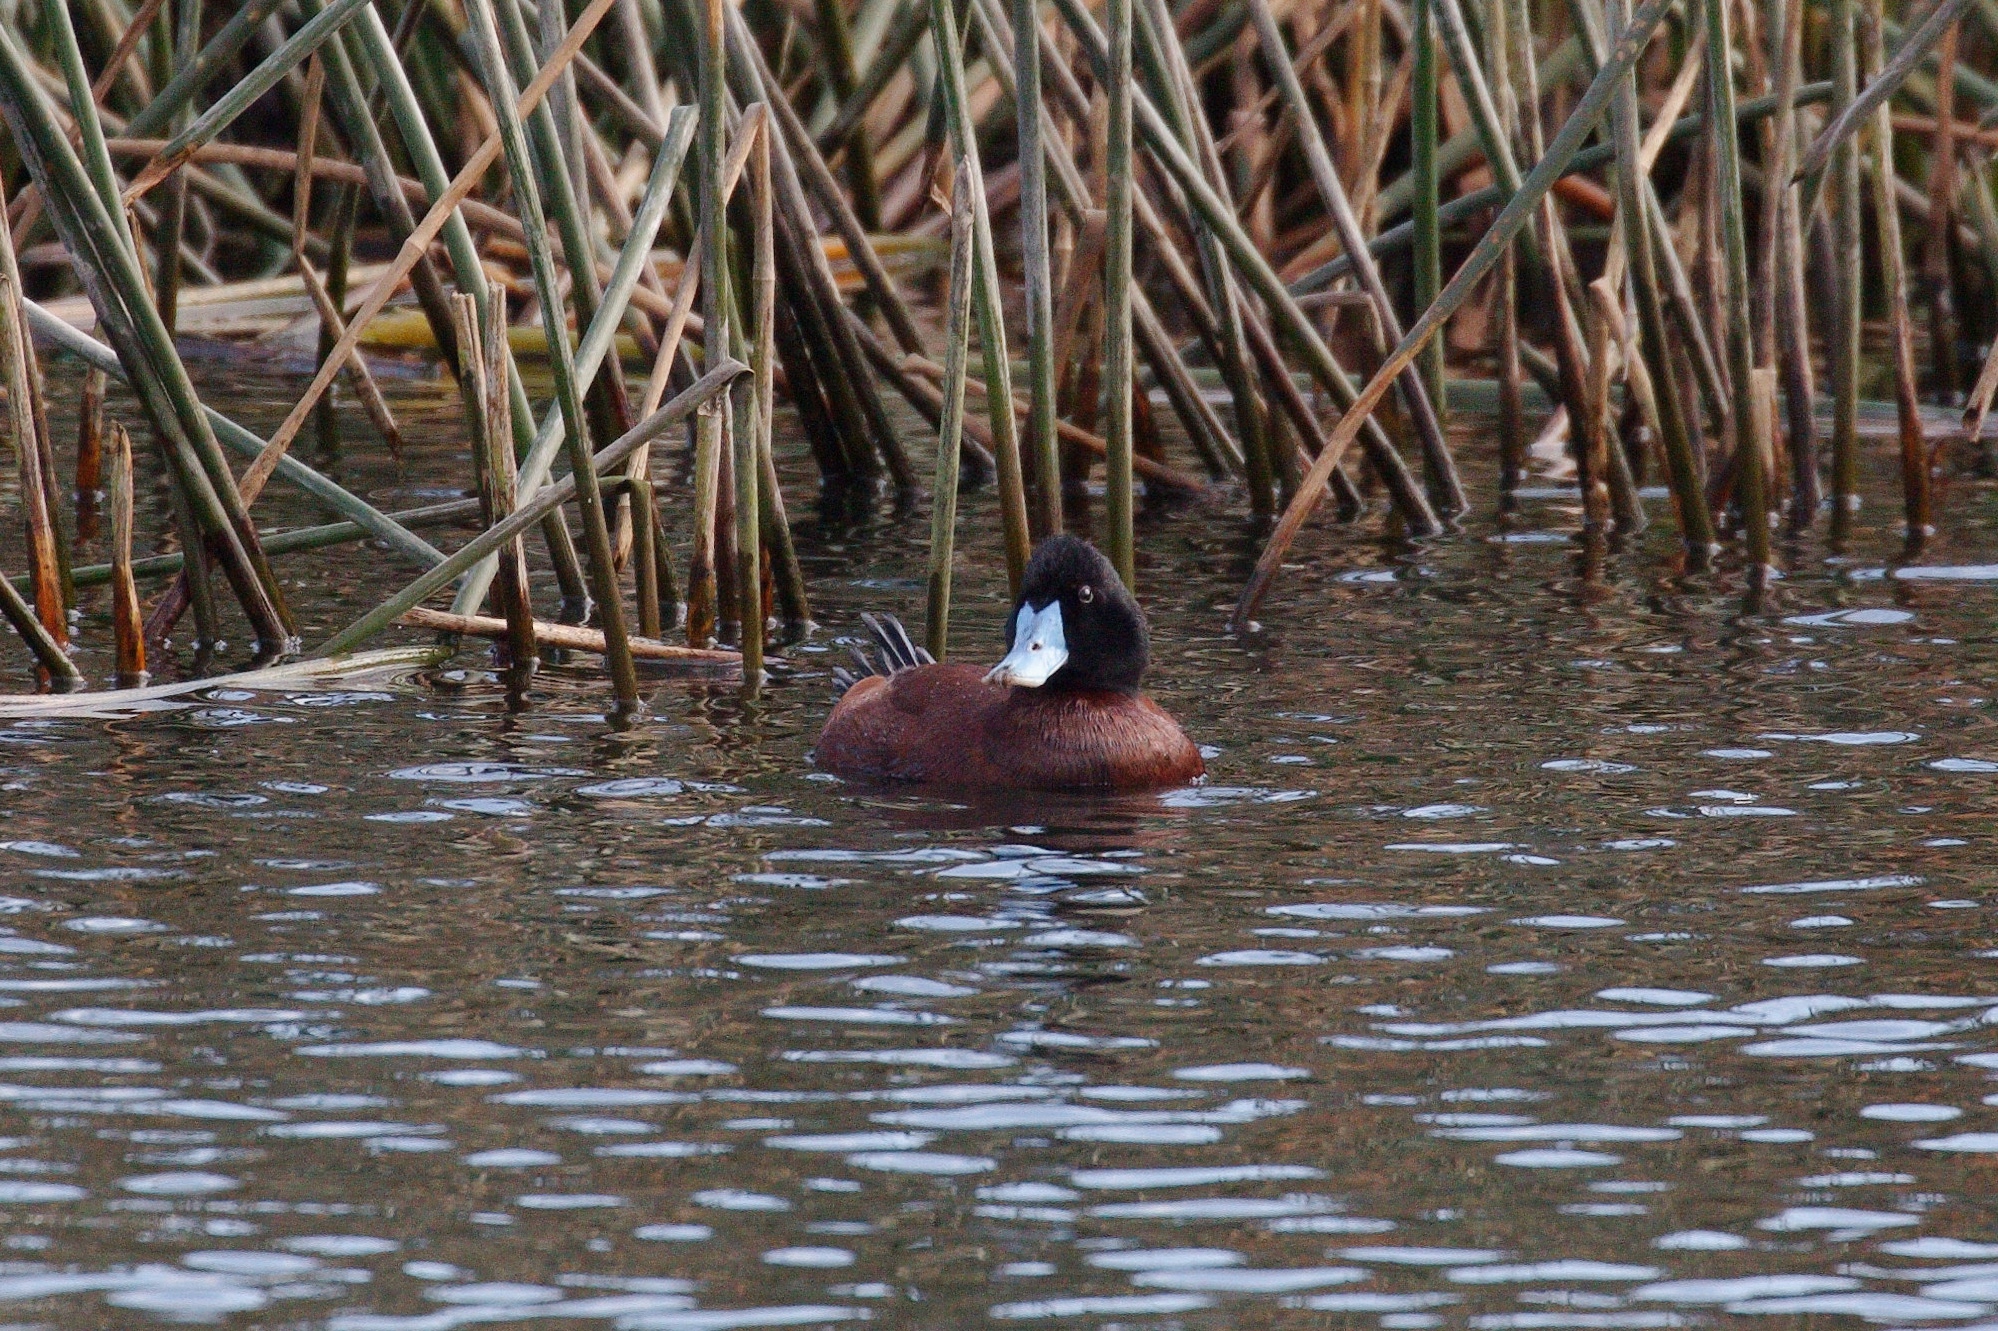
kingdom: Animalia
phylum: Chordata
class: Aves
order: Anseriformes
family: Anatidae
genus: Oxyura
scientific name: Oxyura australis
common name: Blue-billed duck
